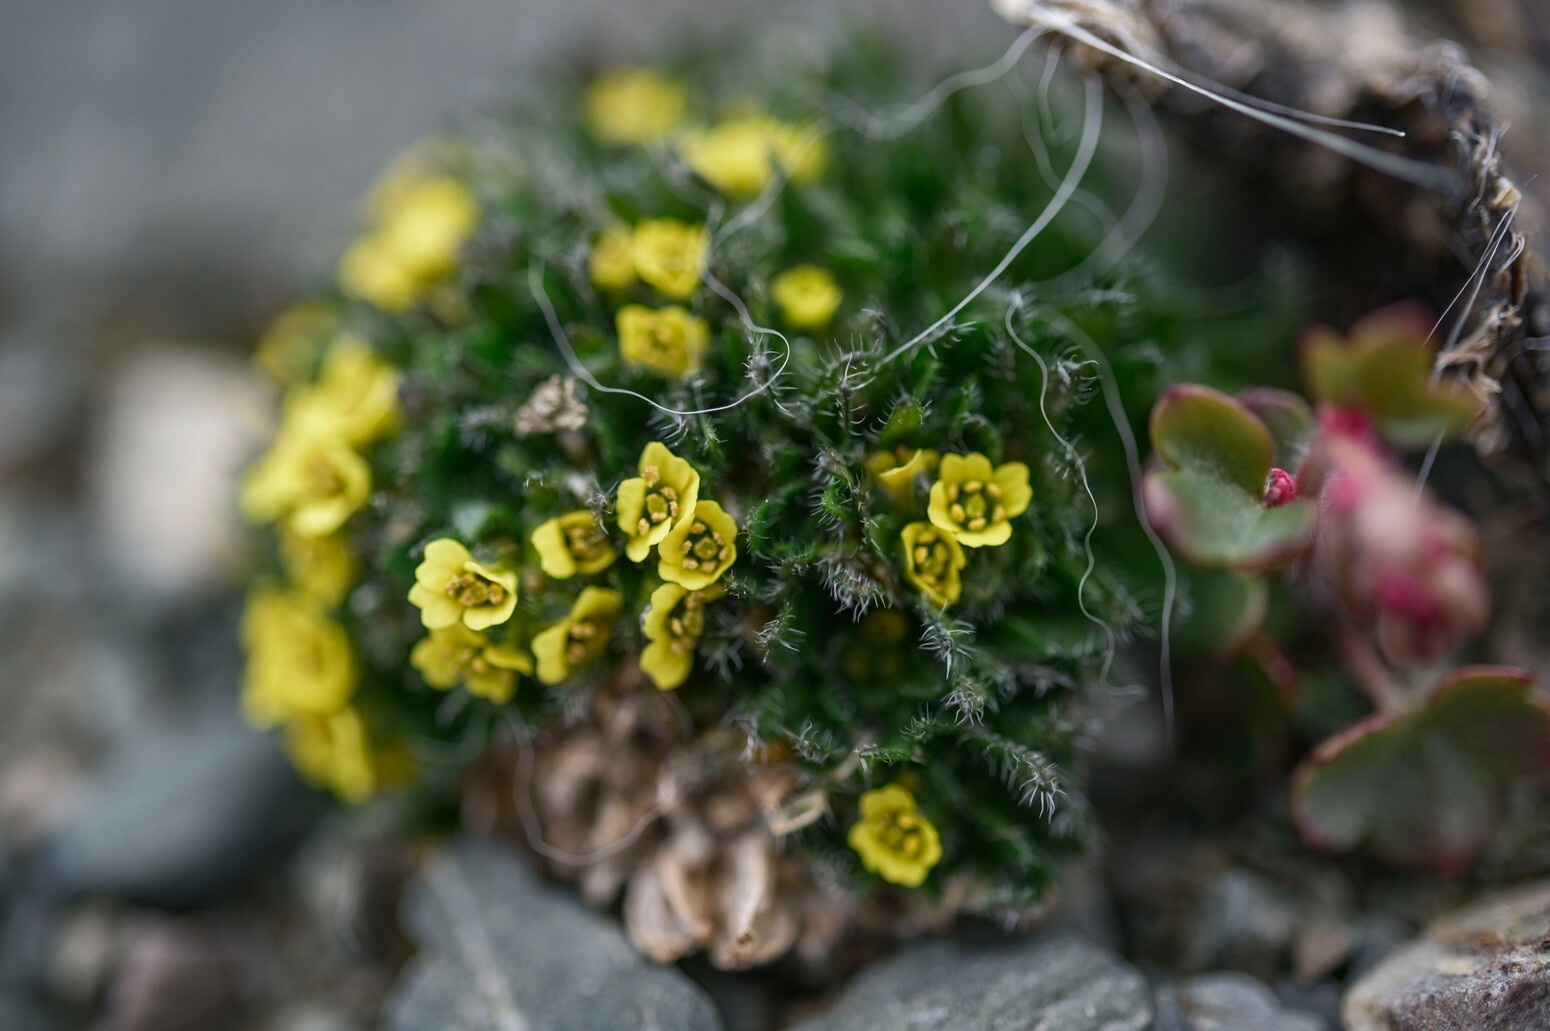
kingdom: Plantae
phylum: Tracheophyta
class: Magnoliopsida
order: Brassicales
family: Brassicaceae
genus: Draba
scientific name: Draba corymbosa
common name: Cushion whitlow-grass
